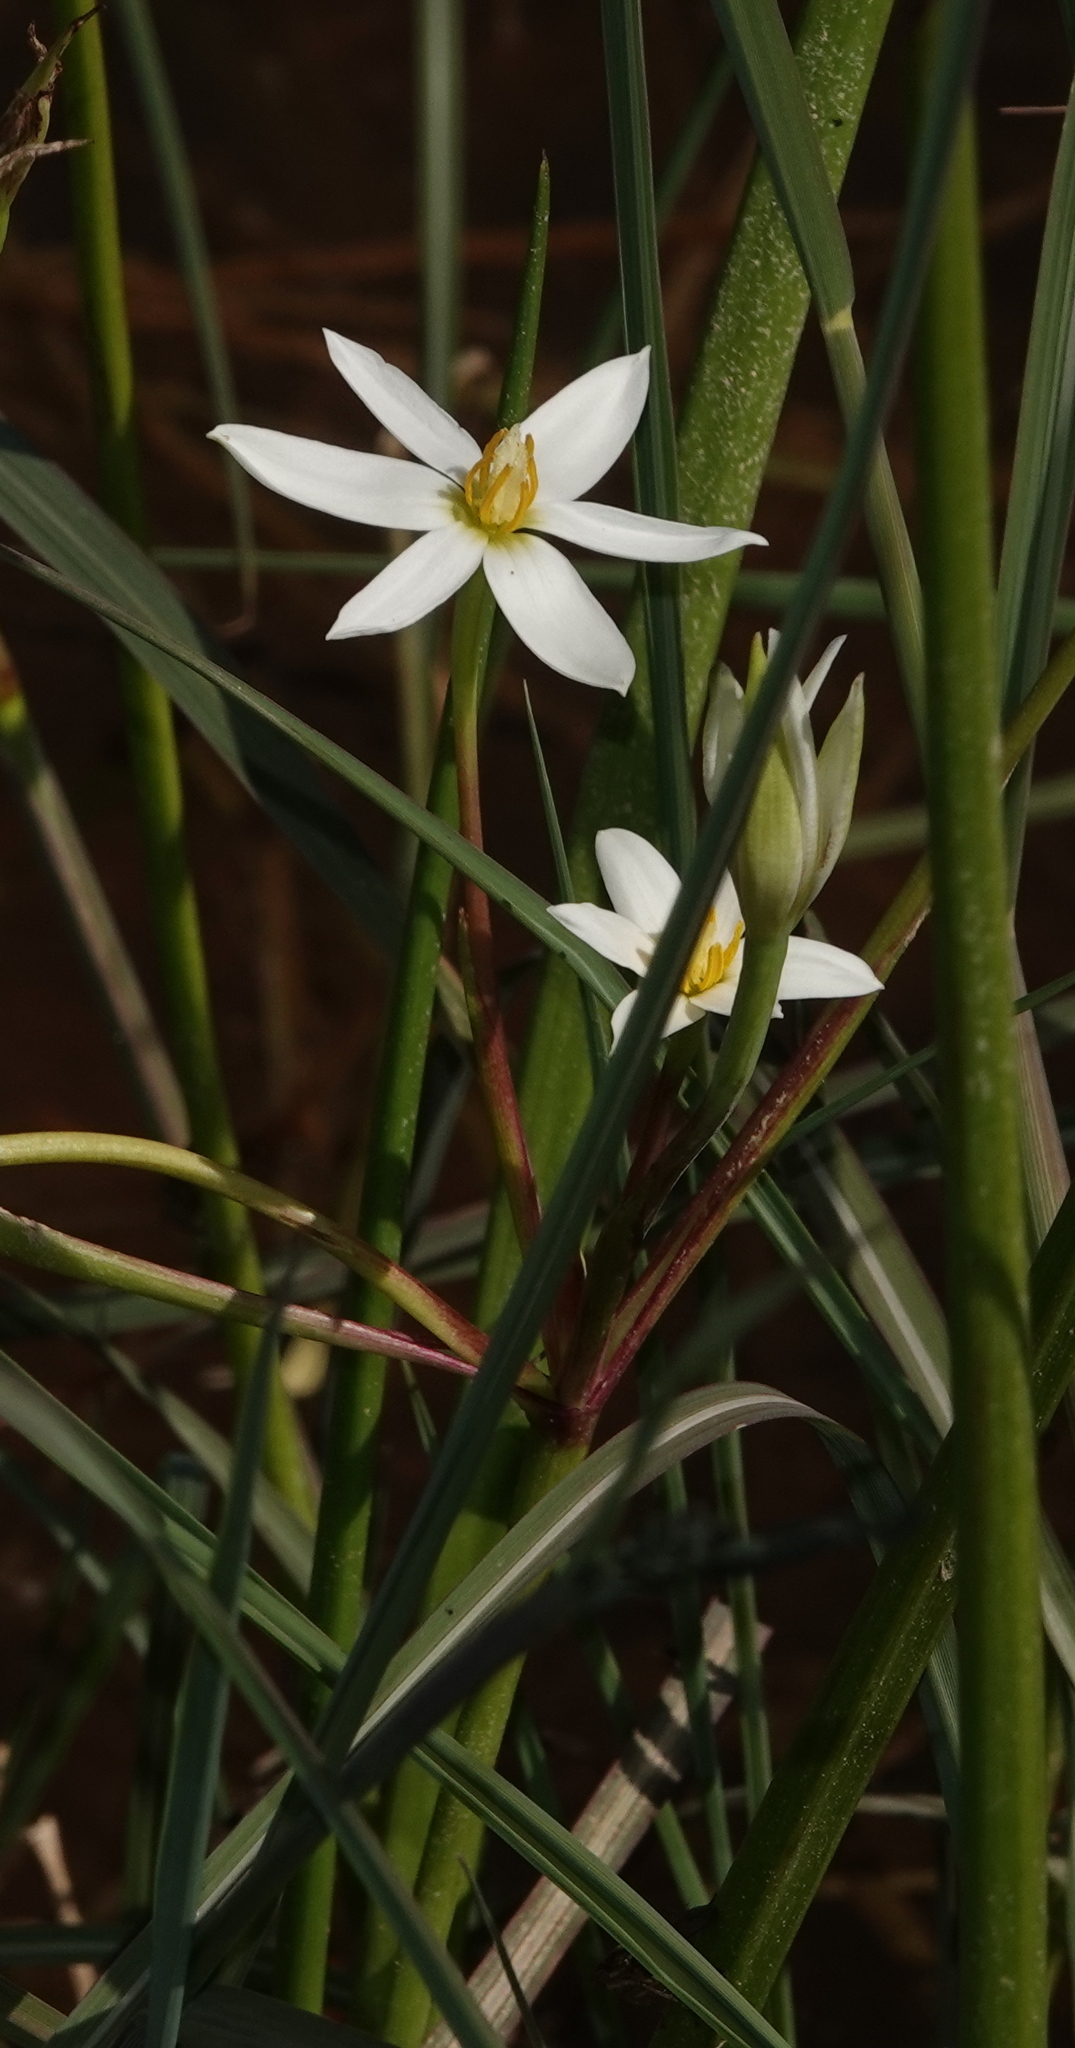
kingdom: Plantae
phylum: Tracheophyta
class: Liliopsida
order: Asparagales
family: Hypoxidaceae
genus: Pauridia
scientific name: Pauridia aquatica
